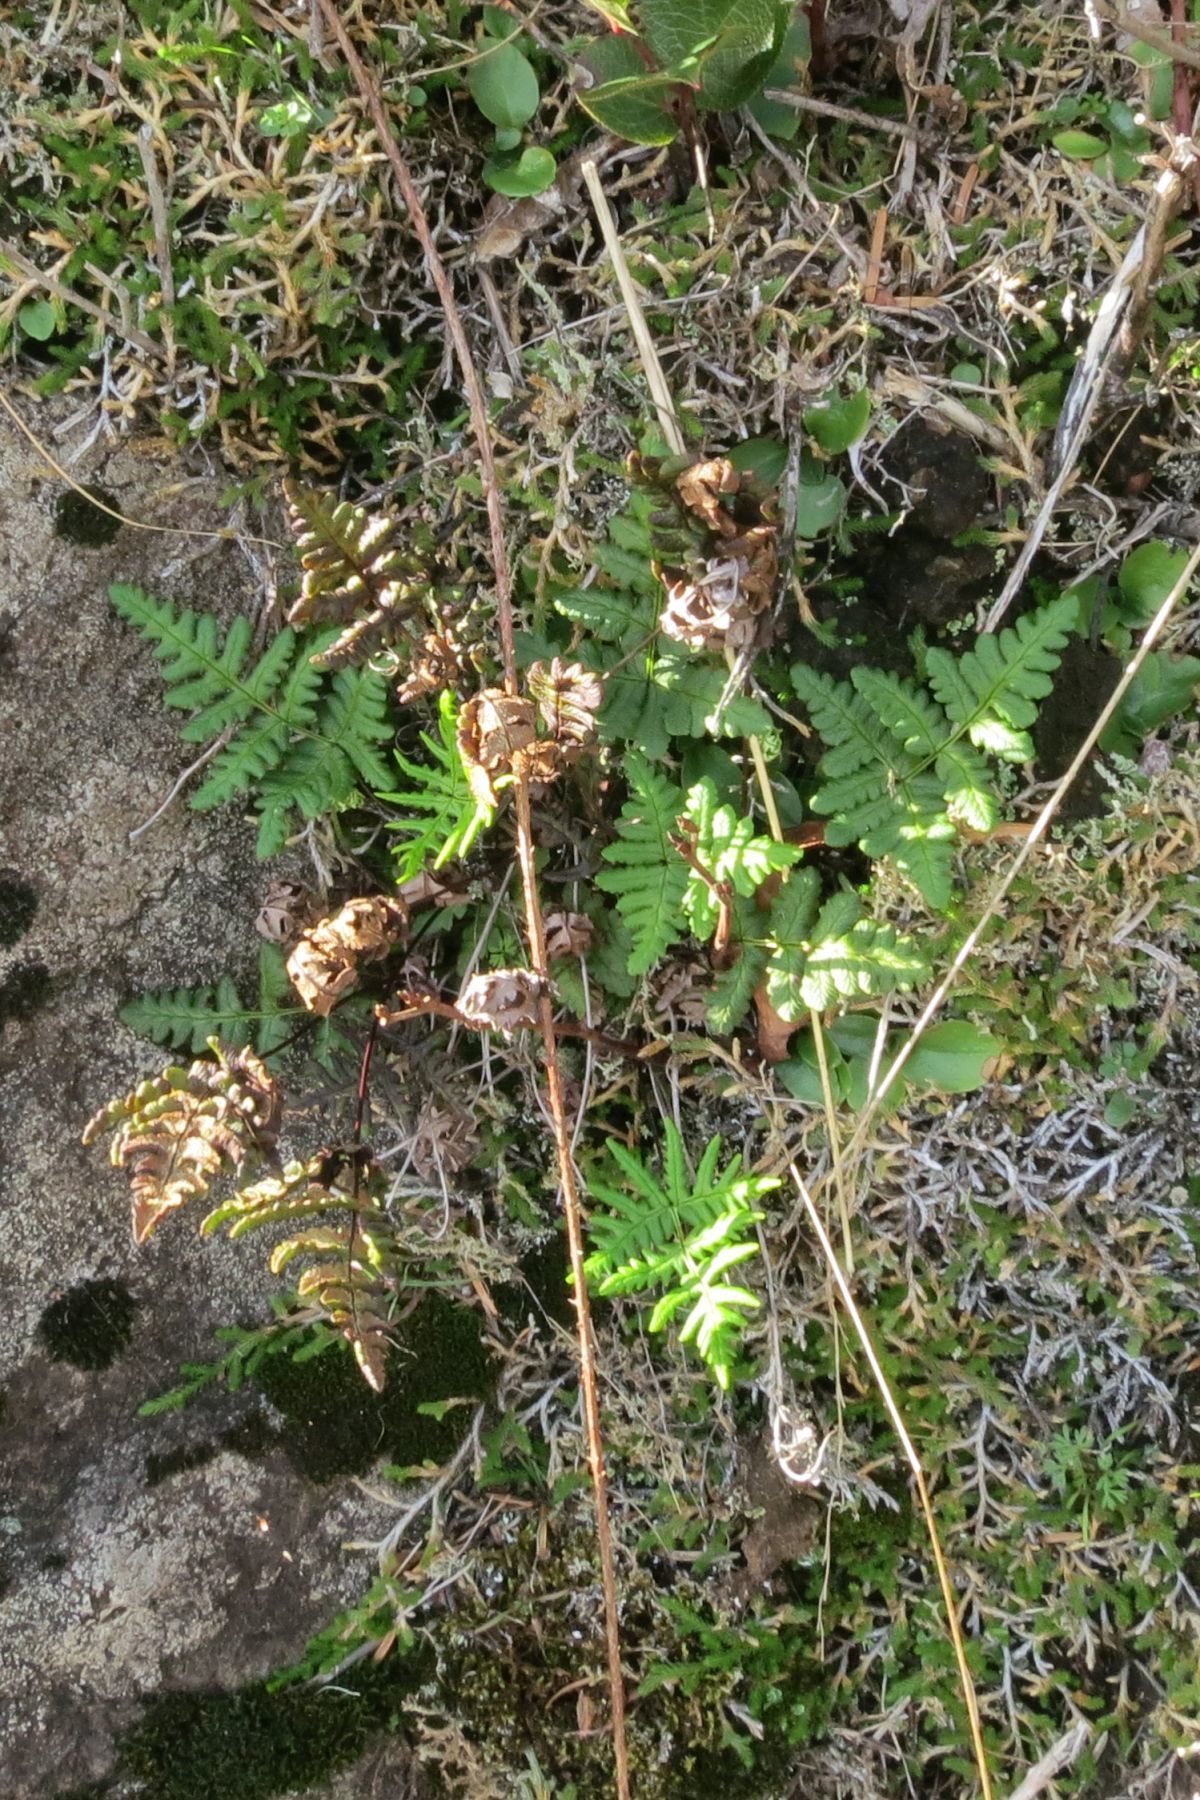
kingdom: Plantae
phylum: Tracheophyta
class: Polypodiopsida
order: Polypodiales
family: Pteridaceae
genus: Pentagramma
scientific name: Pentagramma triangularis
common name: Gold fern
